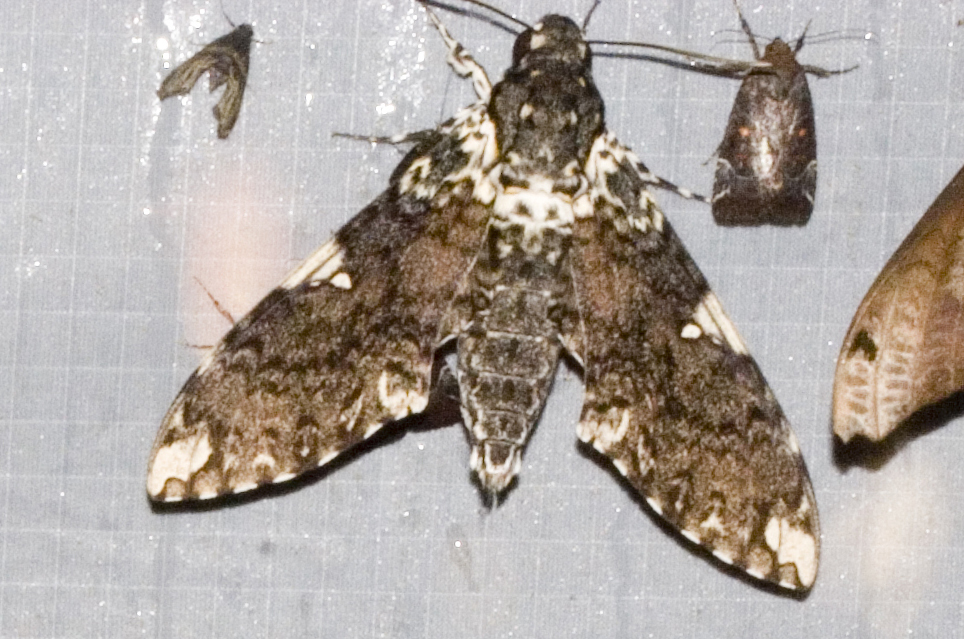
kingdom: Animalia
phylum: Arthropoda
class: Insecta
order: Lepidoptera
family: Sphingidae
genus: Manduca
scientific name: Manduca dalica
